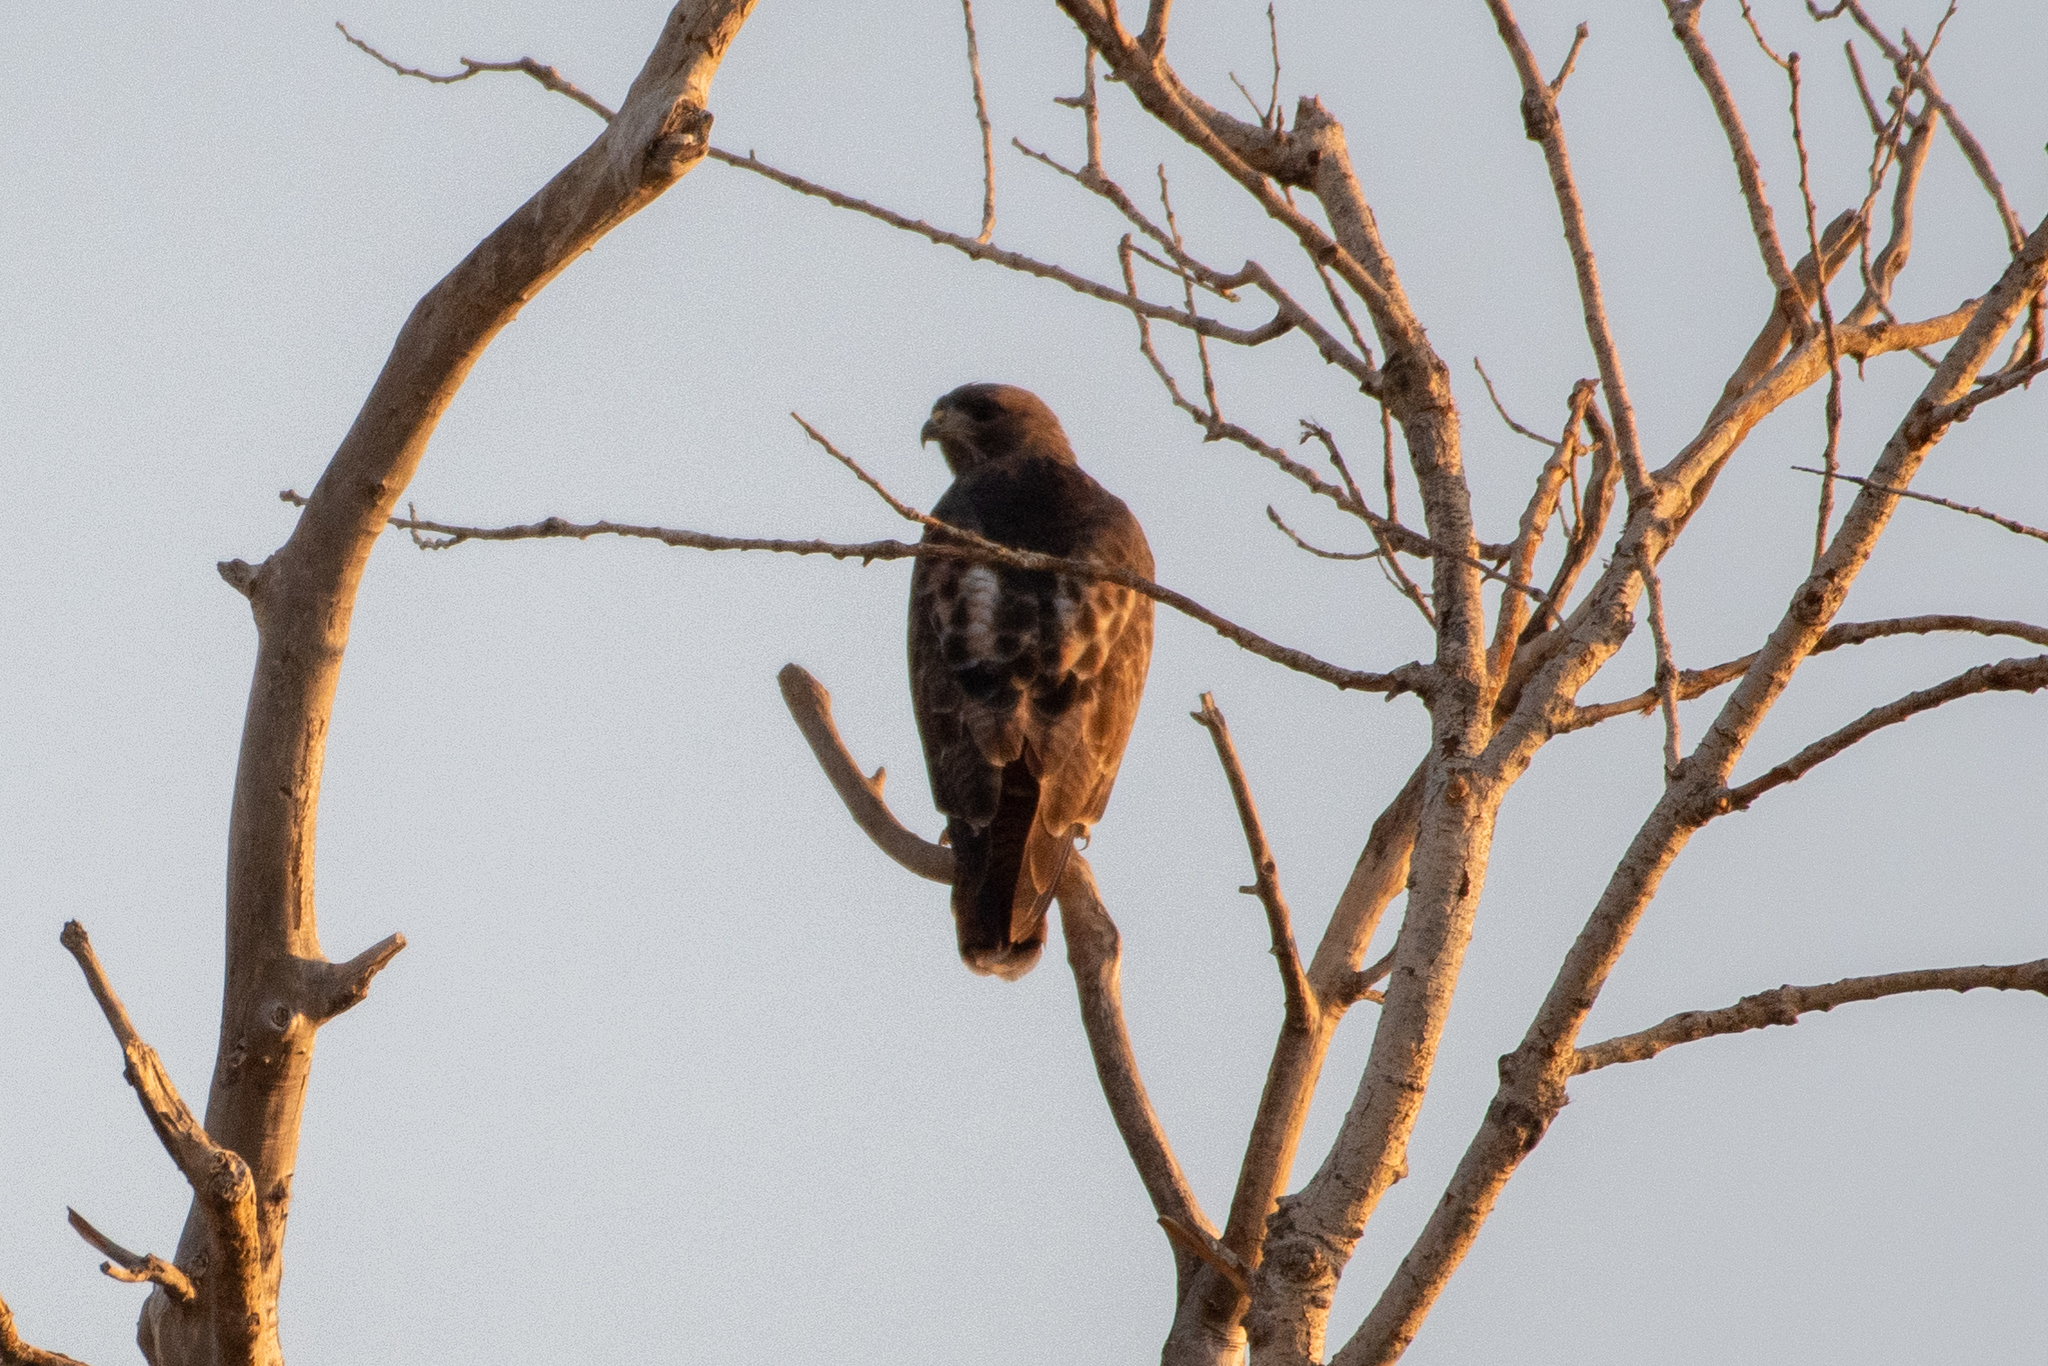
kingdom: Animalia
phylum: Chordata
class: Aves
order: Accipitriformes
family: Accipitridae
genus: Buteo
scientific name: Buteo jamaicensis
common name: Red-tailed hawk
